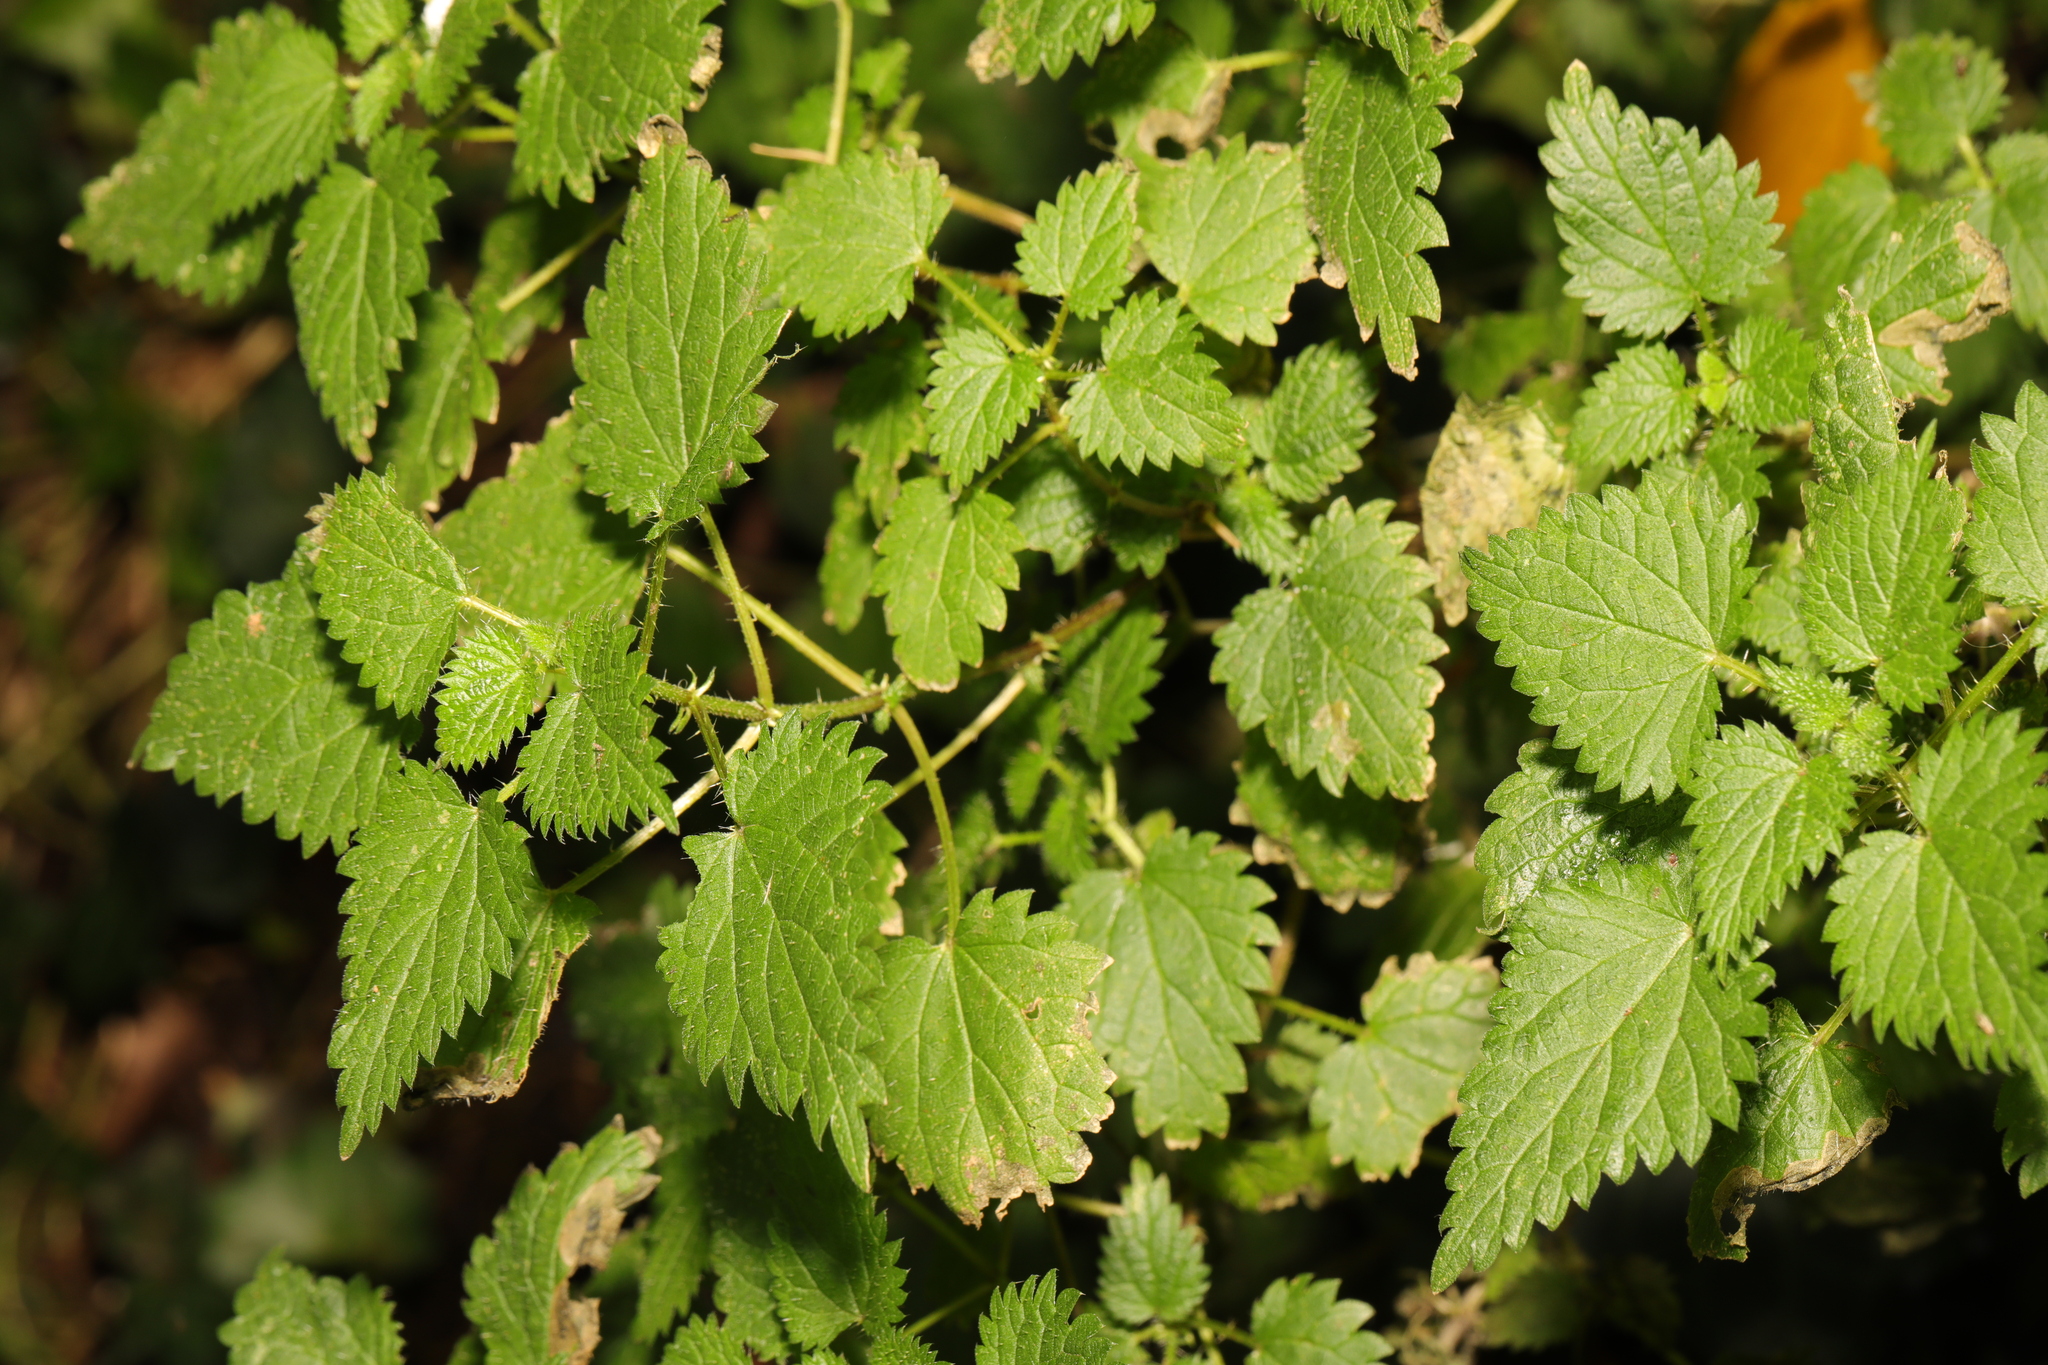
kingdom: Plantae
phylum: Tracheophyta
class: Magnoliopsida
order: Rosales
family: Urticaceae
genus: Urtica
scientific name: Urtica dioica
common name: Common nettle
